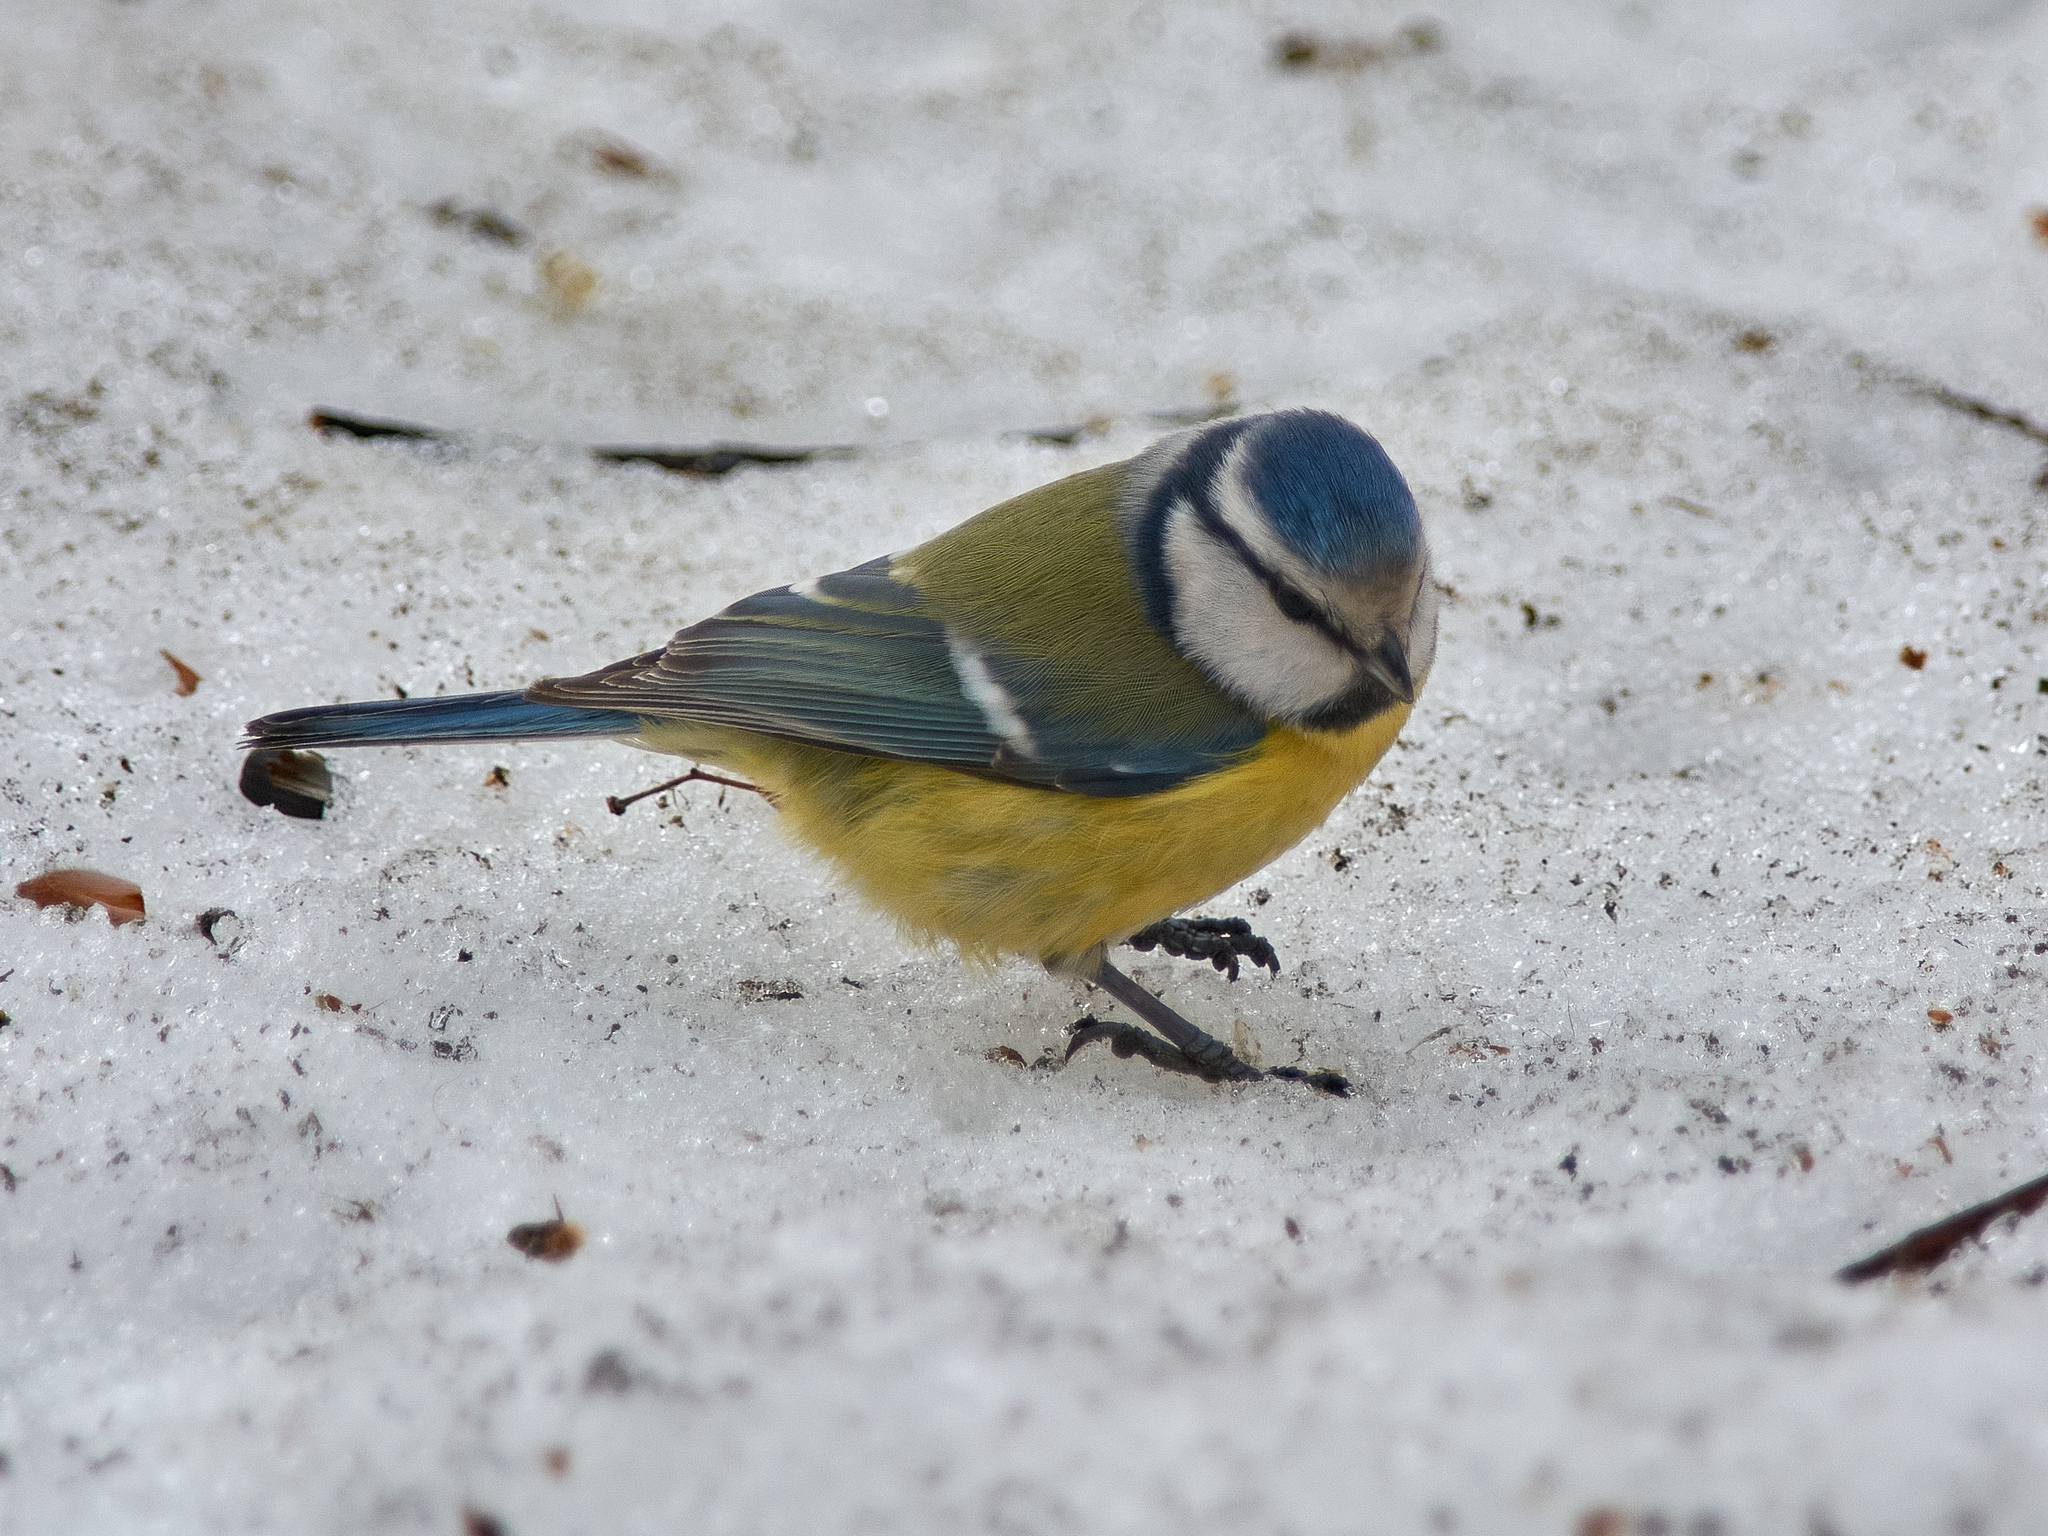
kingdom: Animalia
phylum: Chordata
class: Aves
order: Passeriformes
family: Paridae
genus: Cyanistes
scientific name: Cyanistes caeruleus
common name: Eurasian blue tit
